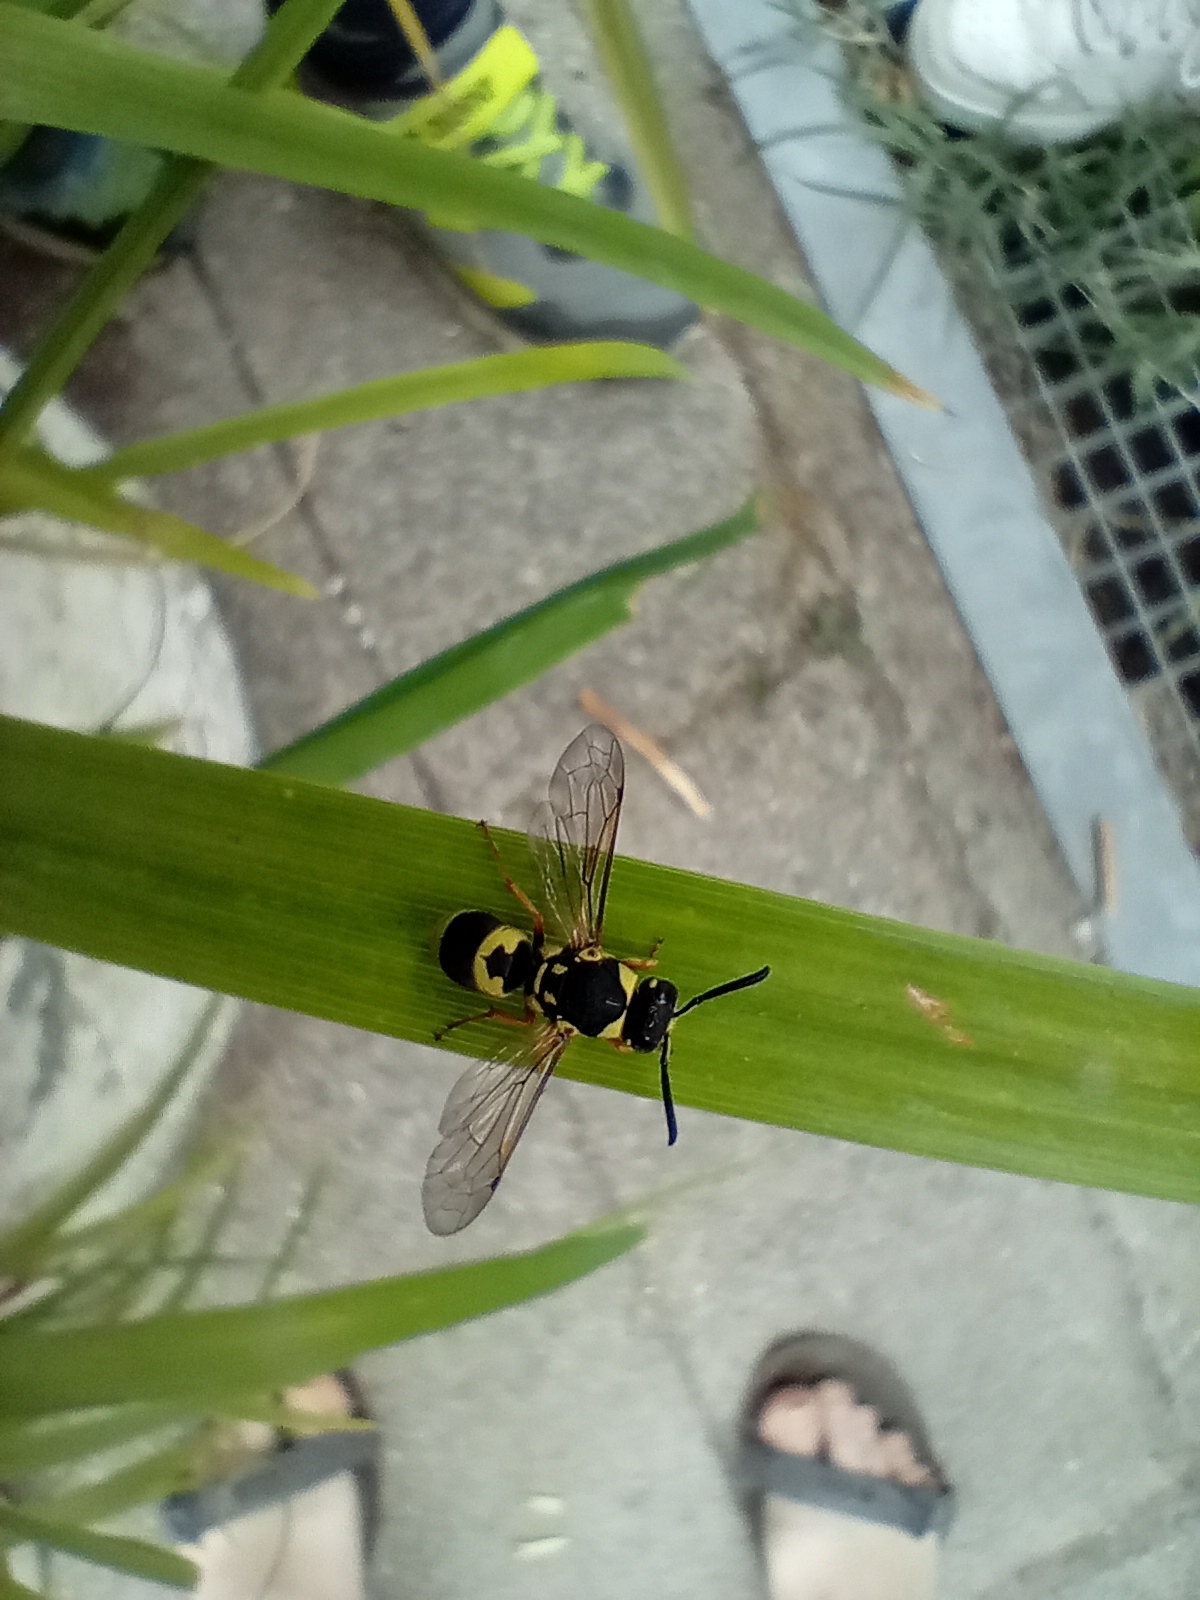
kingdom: Animalia
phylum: Arthropoda
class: Insecta
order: Hymenoptera
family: Eumenidae
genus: Euodynerus
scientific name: Euodynerus posticus
